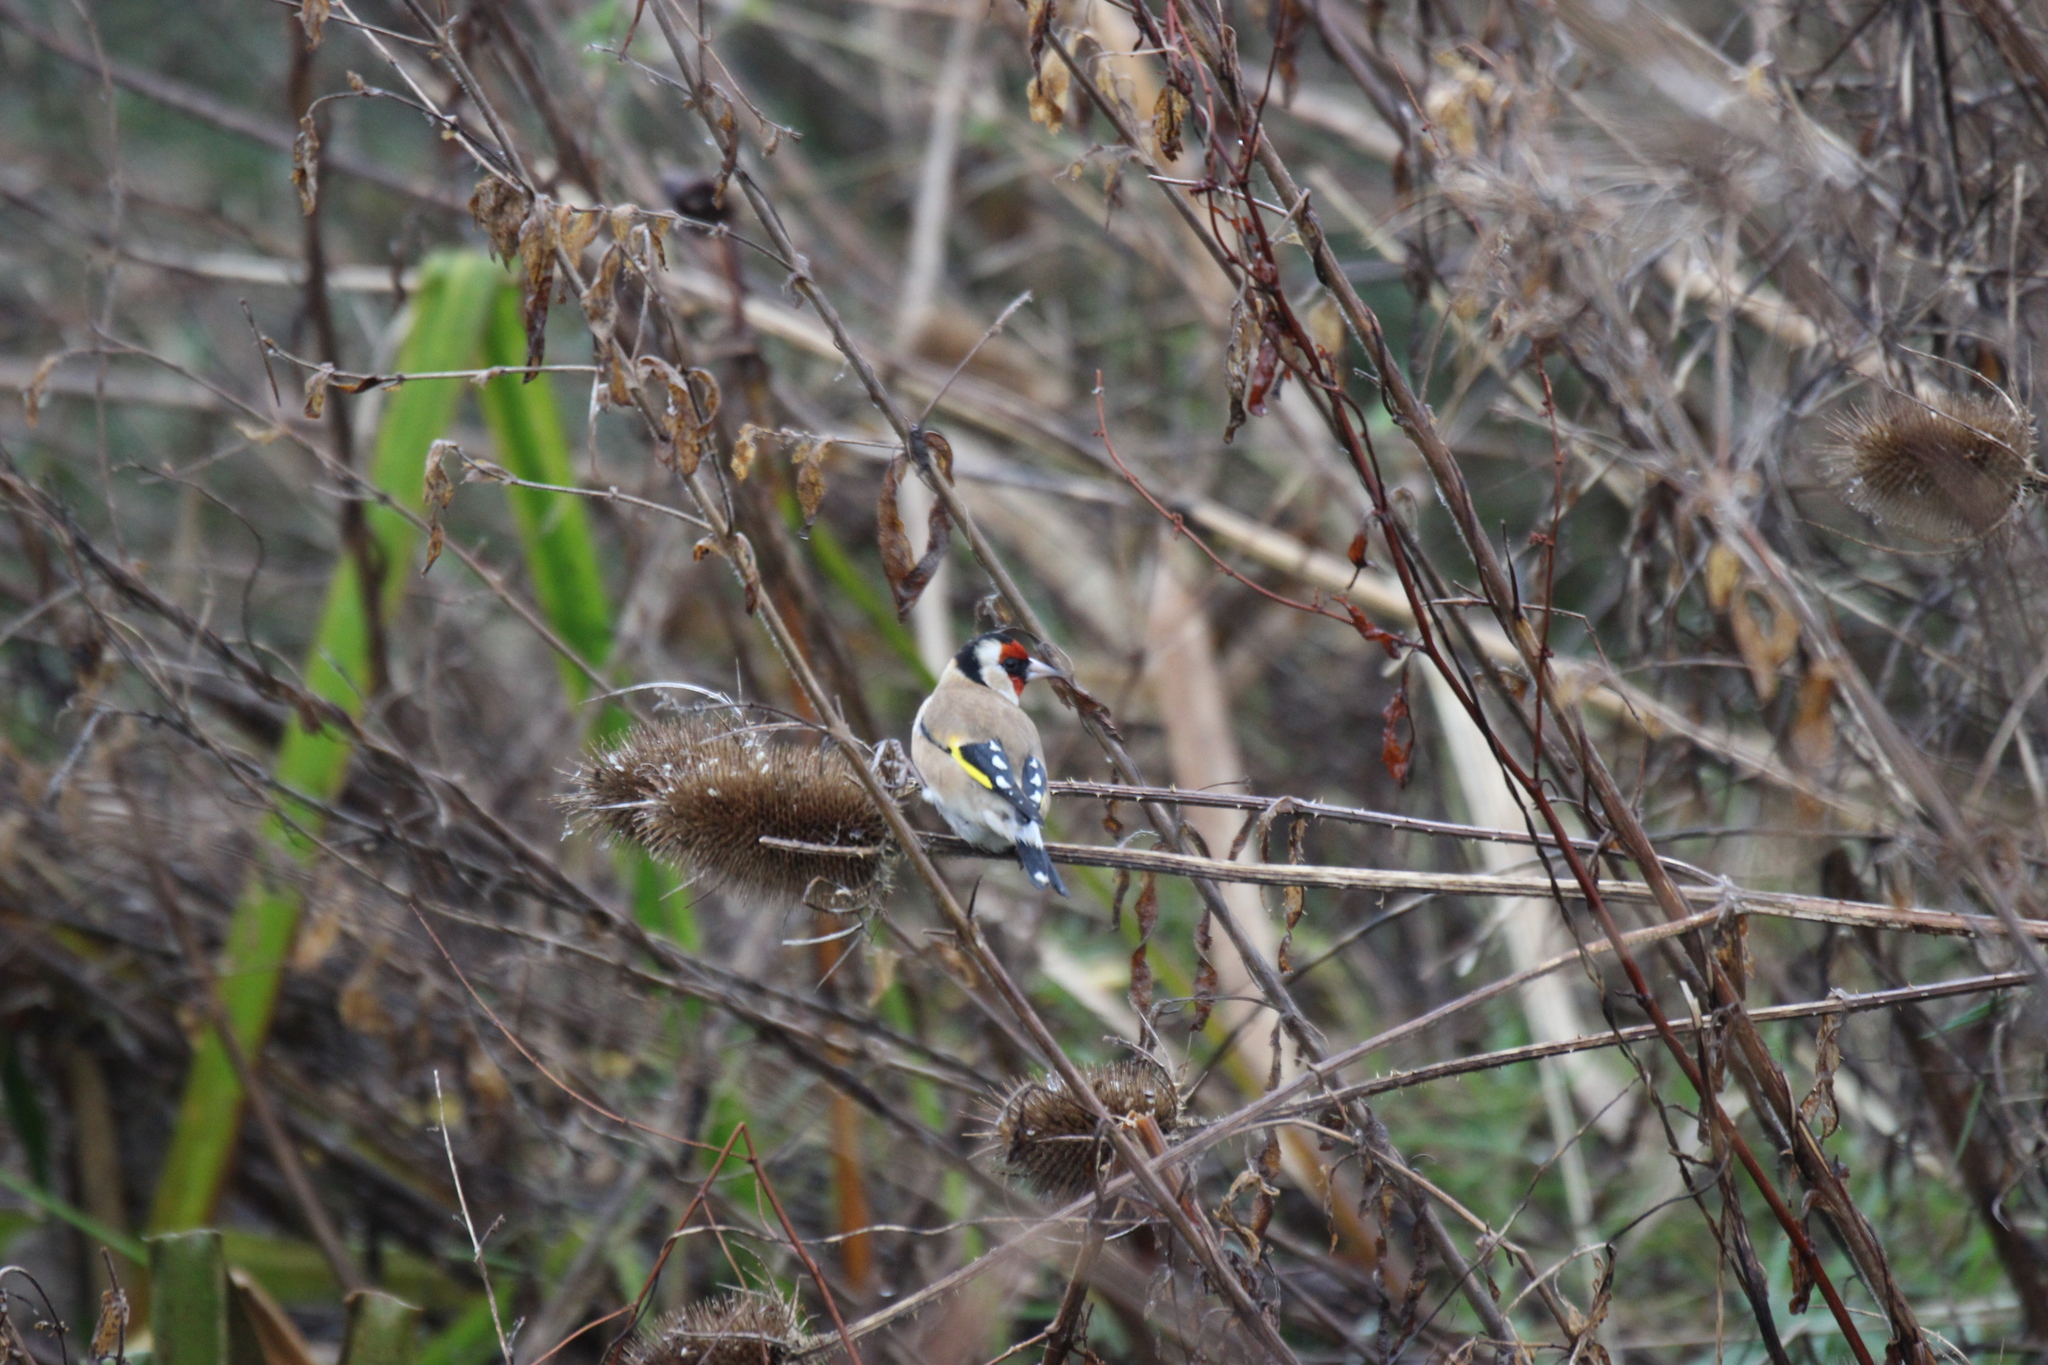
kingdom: Animalia
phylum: Chordata
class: Aves
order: Passeriformes
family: Fringillidae
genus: Carduelis
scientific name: Carduelis carduelis
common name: European goldfinch
